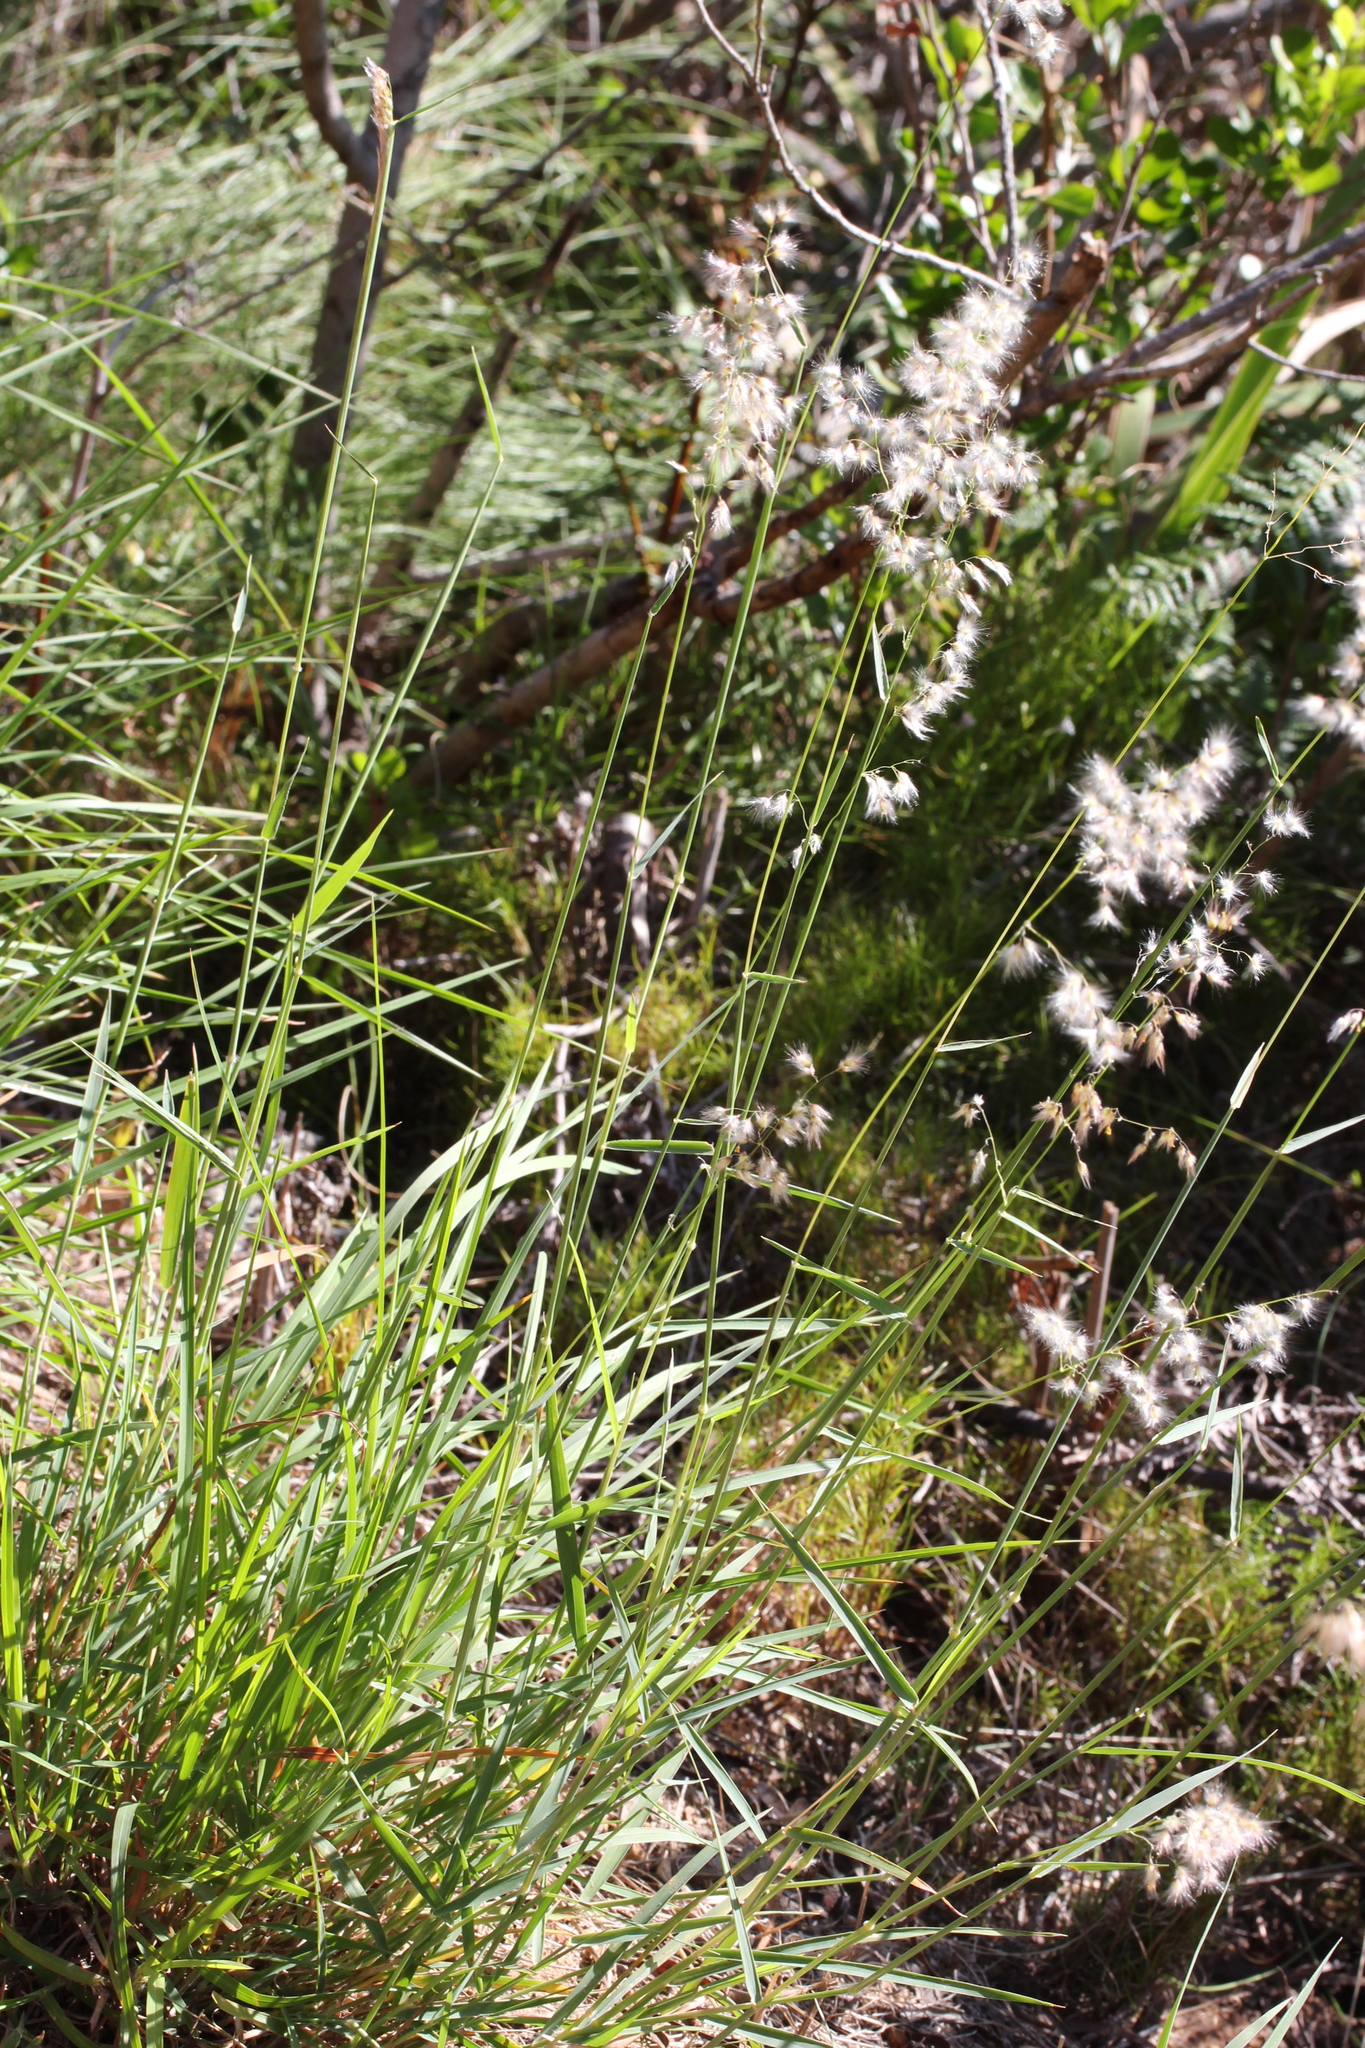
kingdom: Plantae
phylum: Tracheophyta
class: Liliopsida
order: Poales
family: Poaceae
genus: Melinis
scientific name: Melinis repens
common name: Rose natal grass
